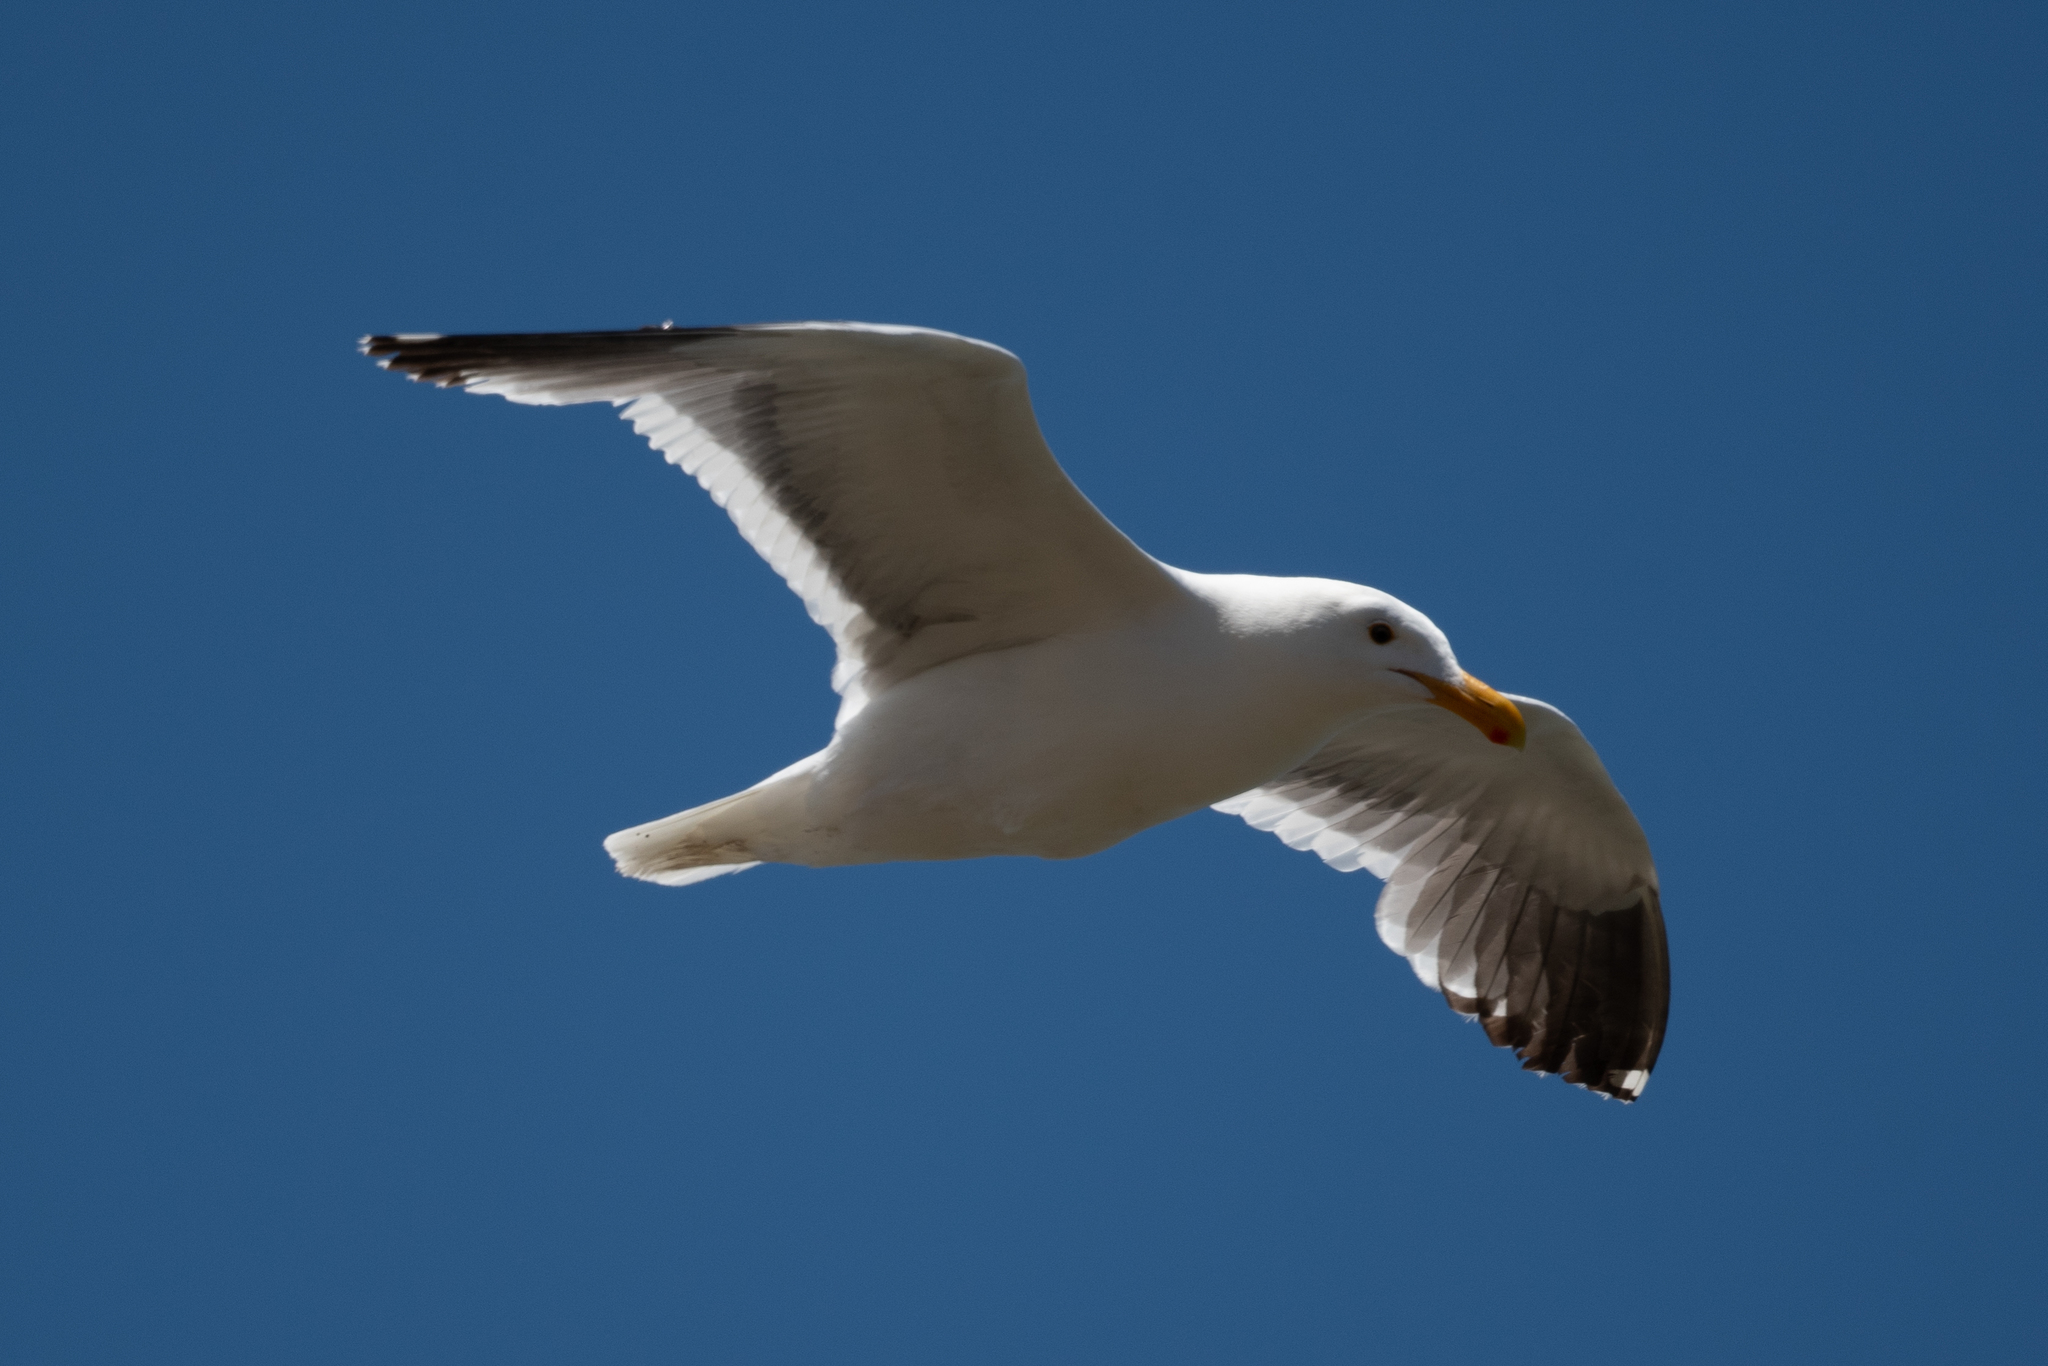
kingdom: Animalia
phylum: Chordata
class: Aves
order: Charadriiformes
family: Laridae
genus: Larus
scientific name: Larus occidentalis
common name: Western gull
